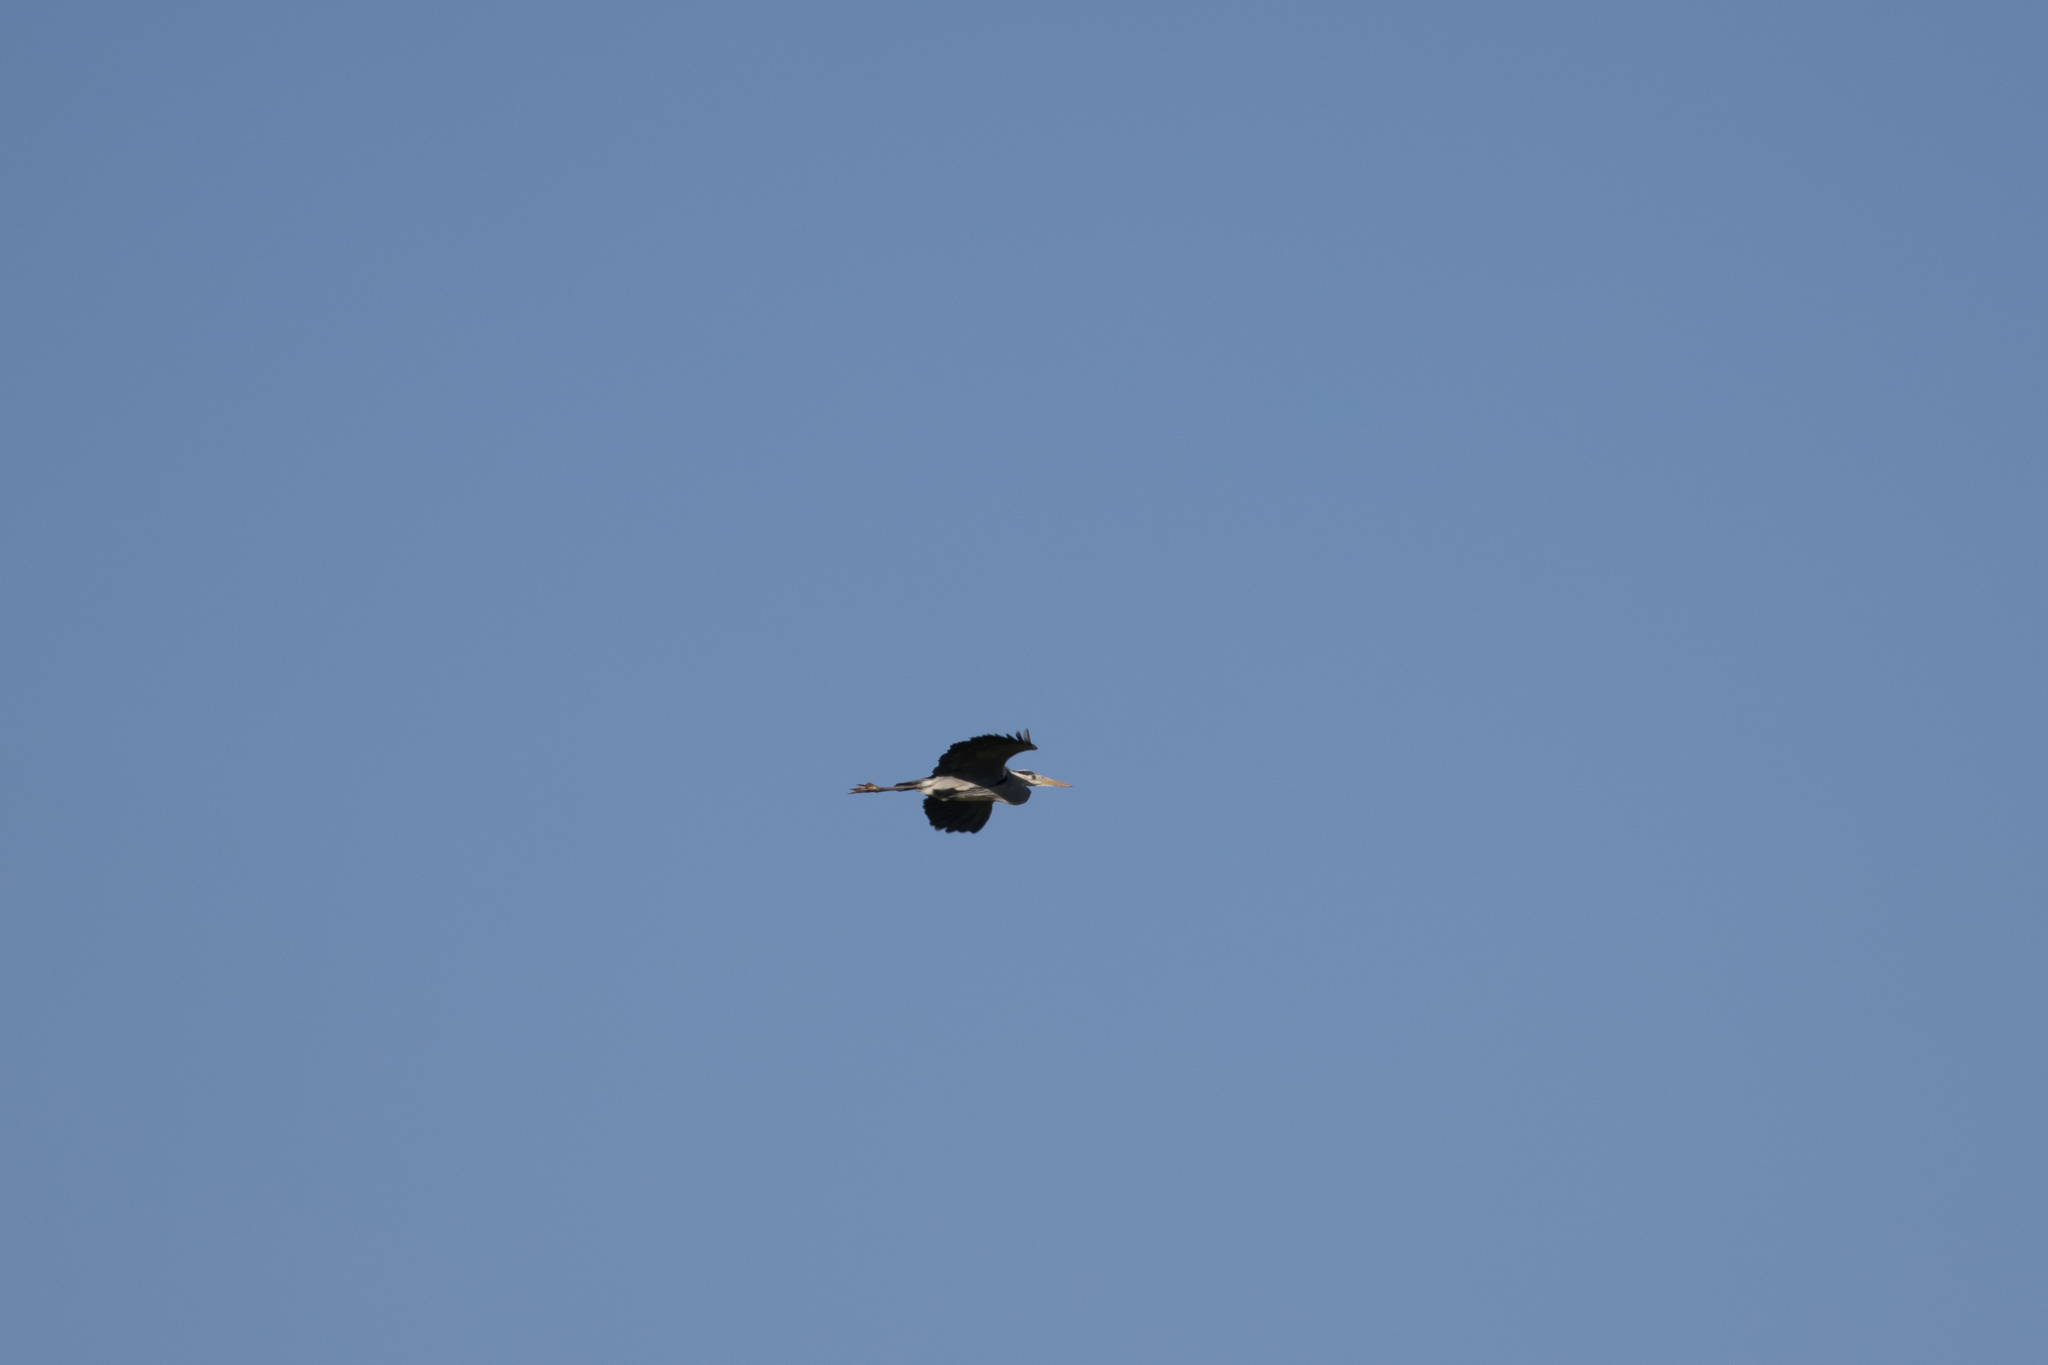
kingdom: Animalia
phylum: Chordata
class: Aves
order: Pelecaniformes
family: Ardeidae
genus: Ardea
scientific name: Ardea cinerea
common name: Grey heron
